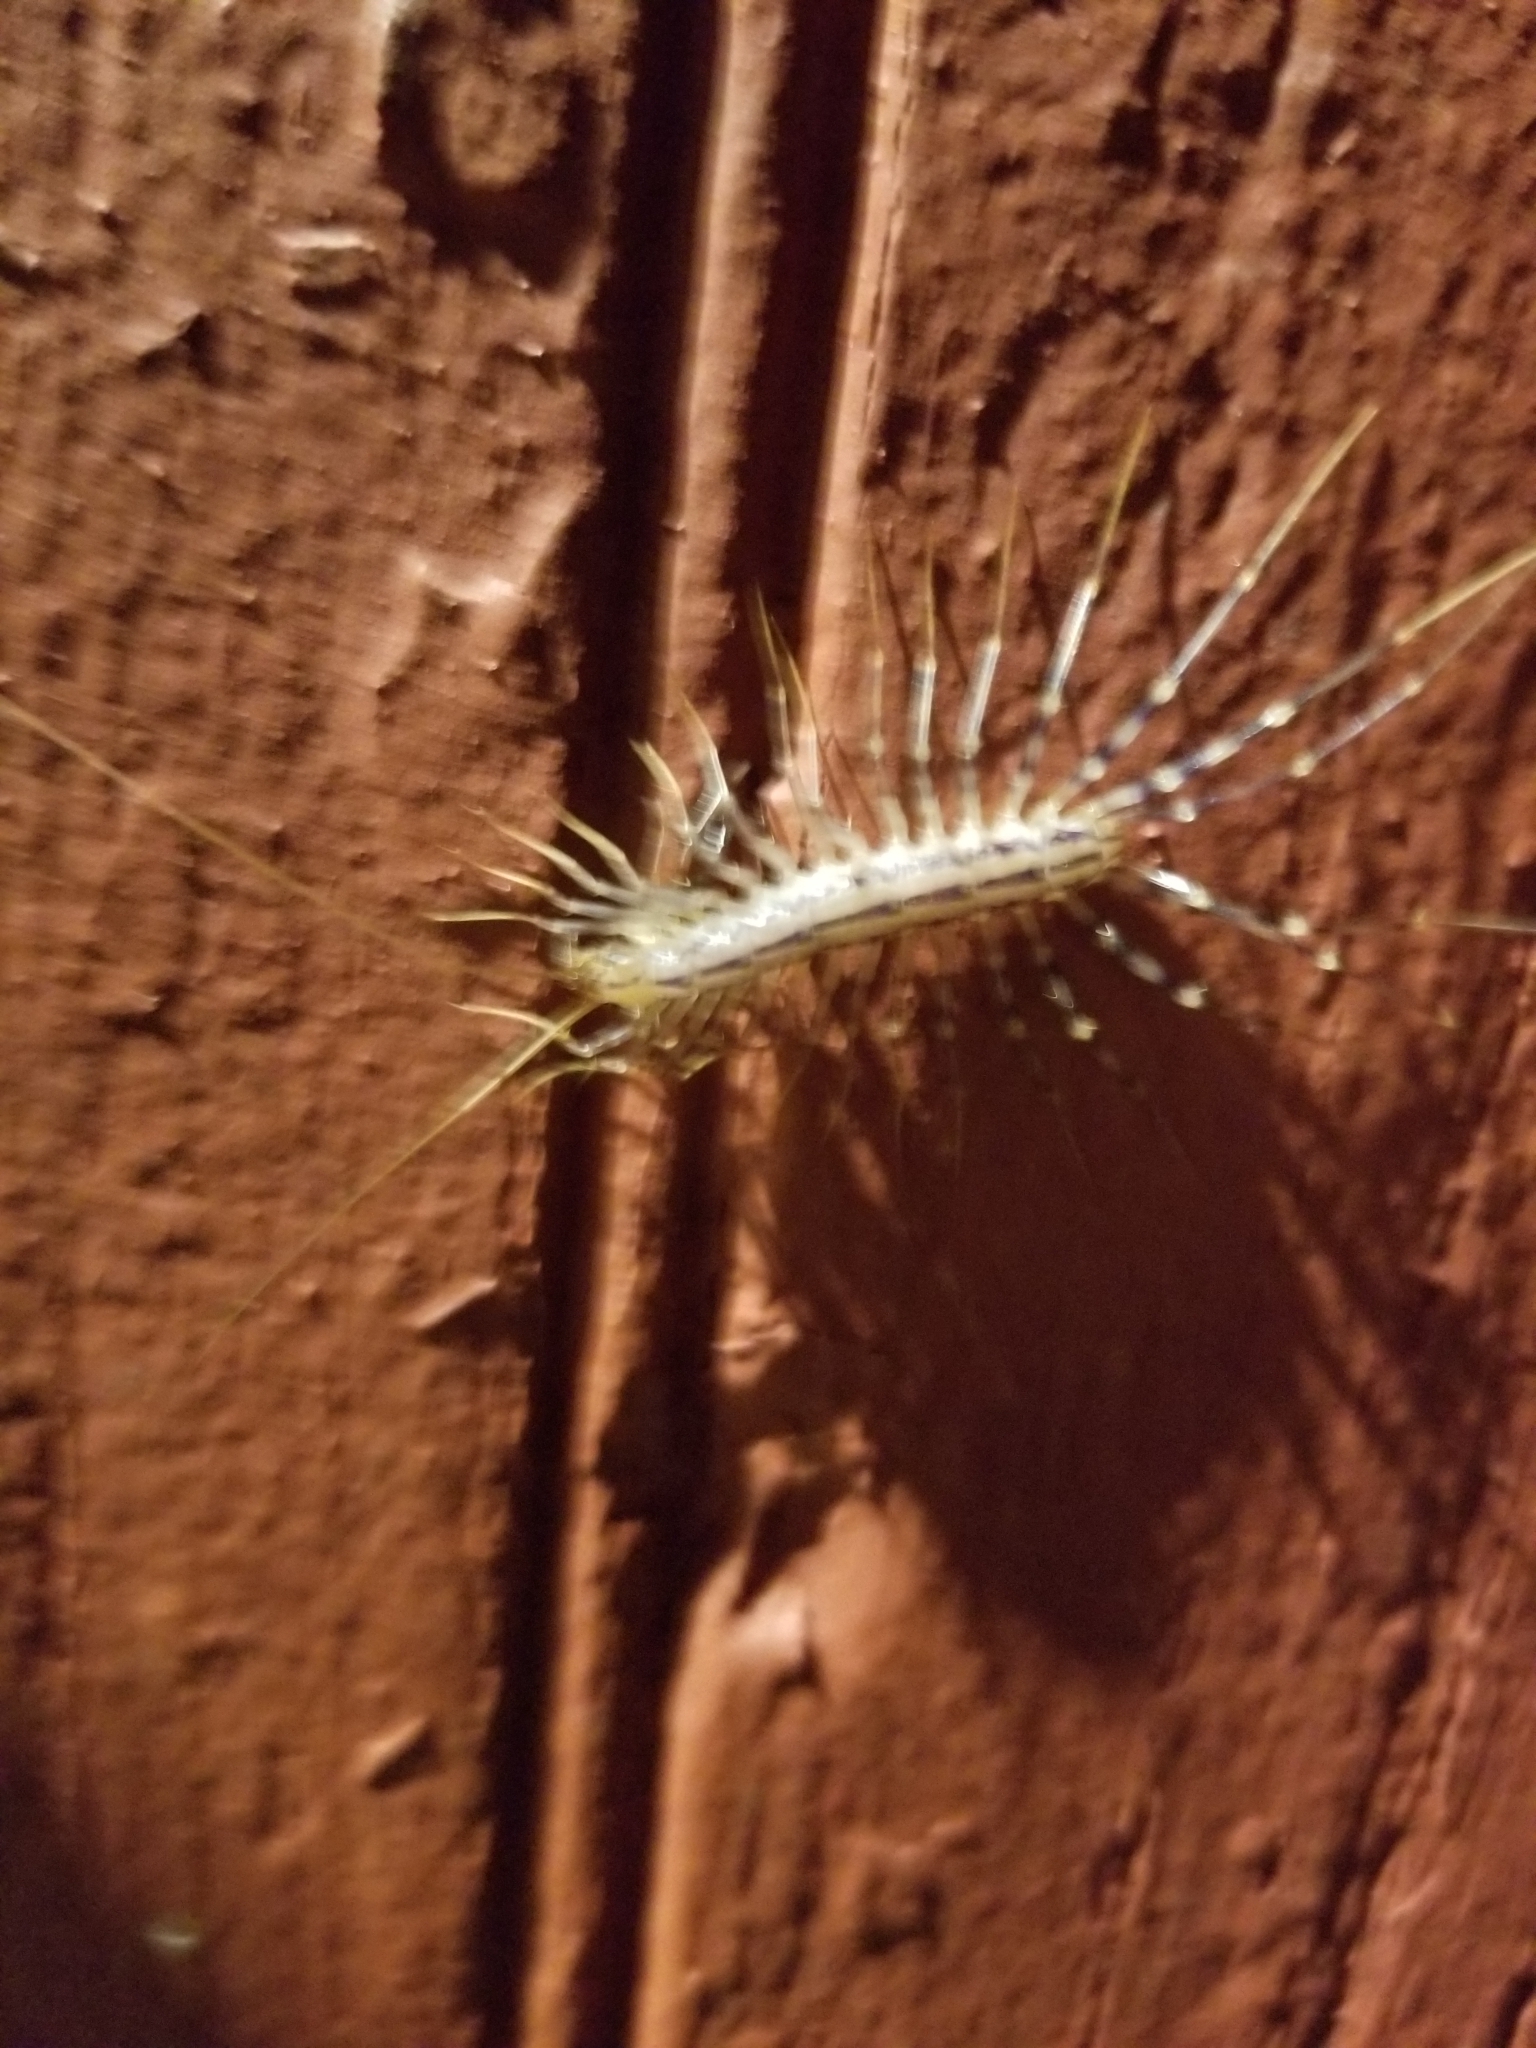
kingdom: Animalia
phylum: Arthropoda
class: Chilopoda
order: Scutigeromorpha
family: Scutigeridae
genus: Scutigera
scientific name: Scutigera coleoptrata
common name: House centipede
